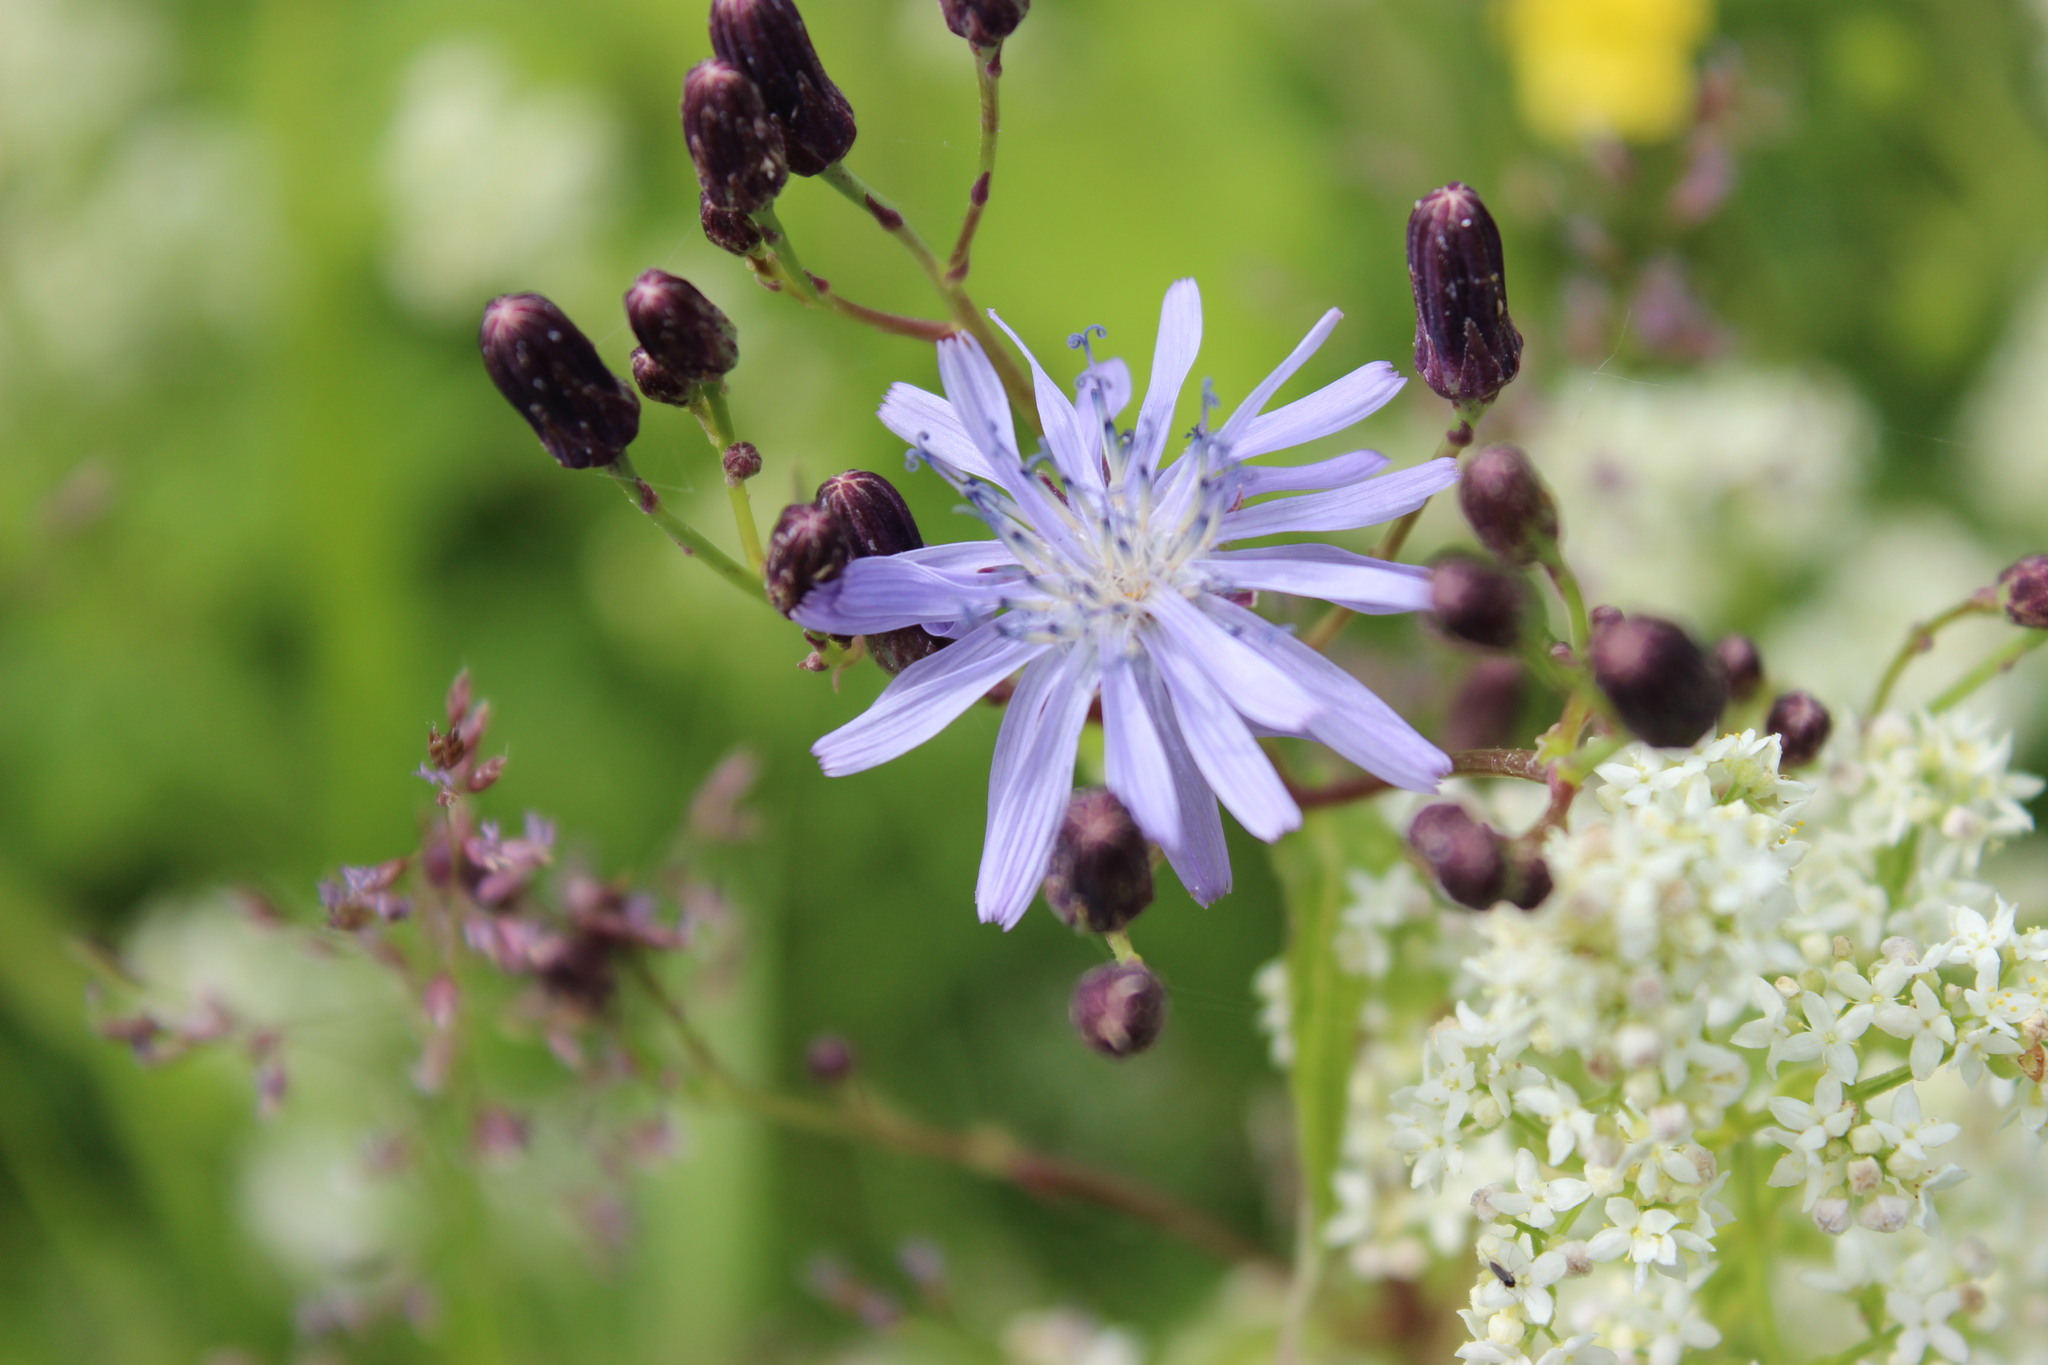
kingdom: Plantae
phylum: Tracheophyta
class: Magnoliopsida
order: Asterales
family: Asteraceae
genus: Lactuca
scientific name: Lactuca sibirica
